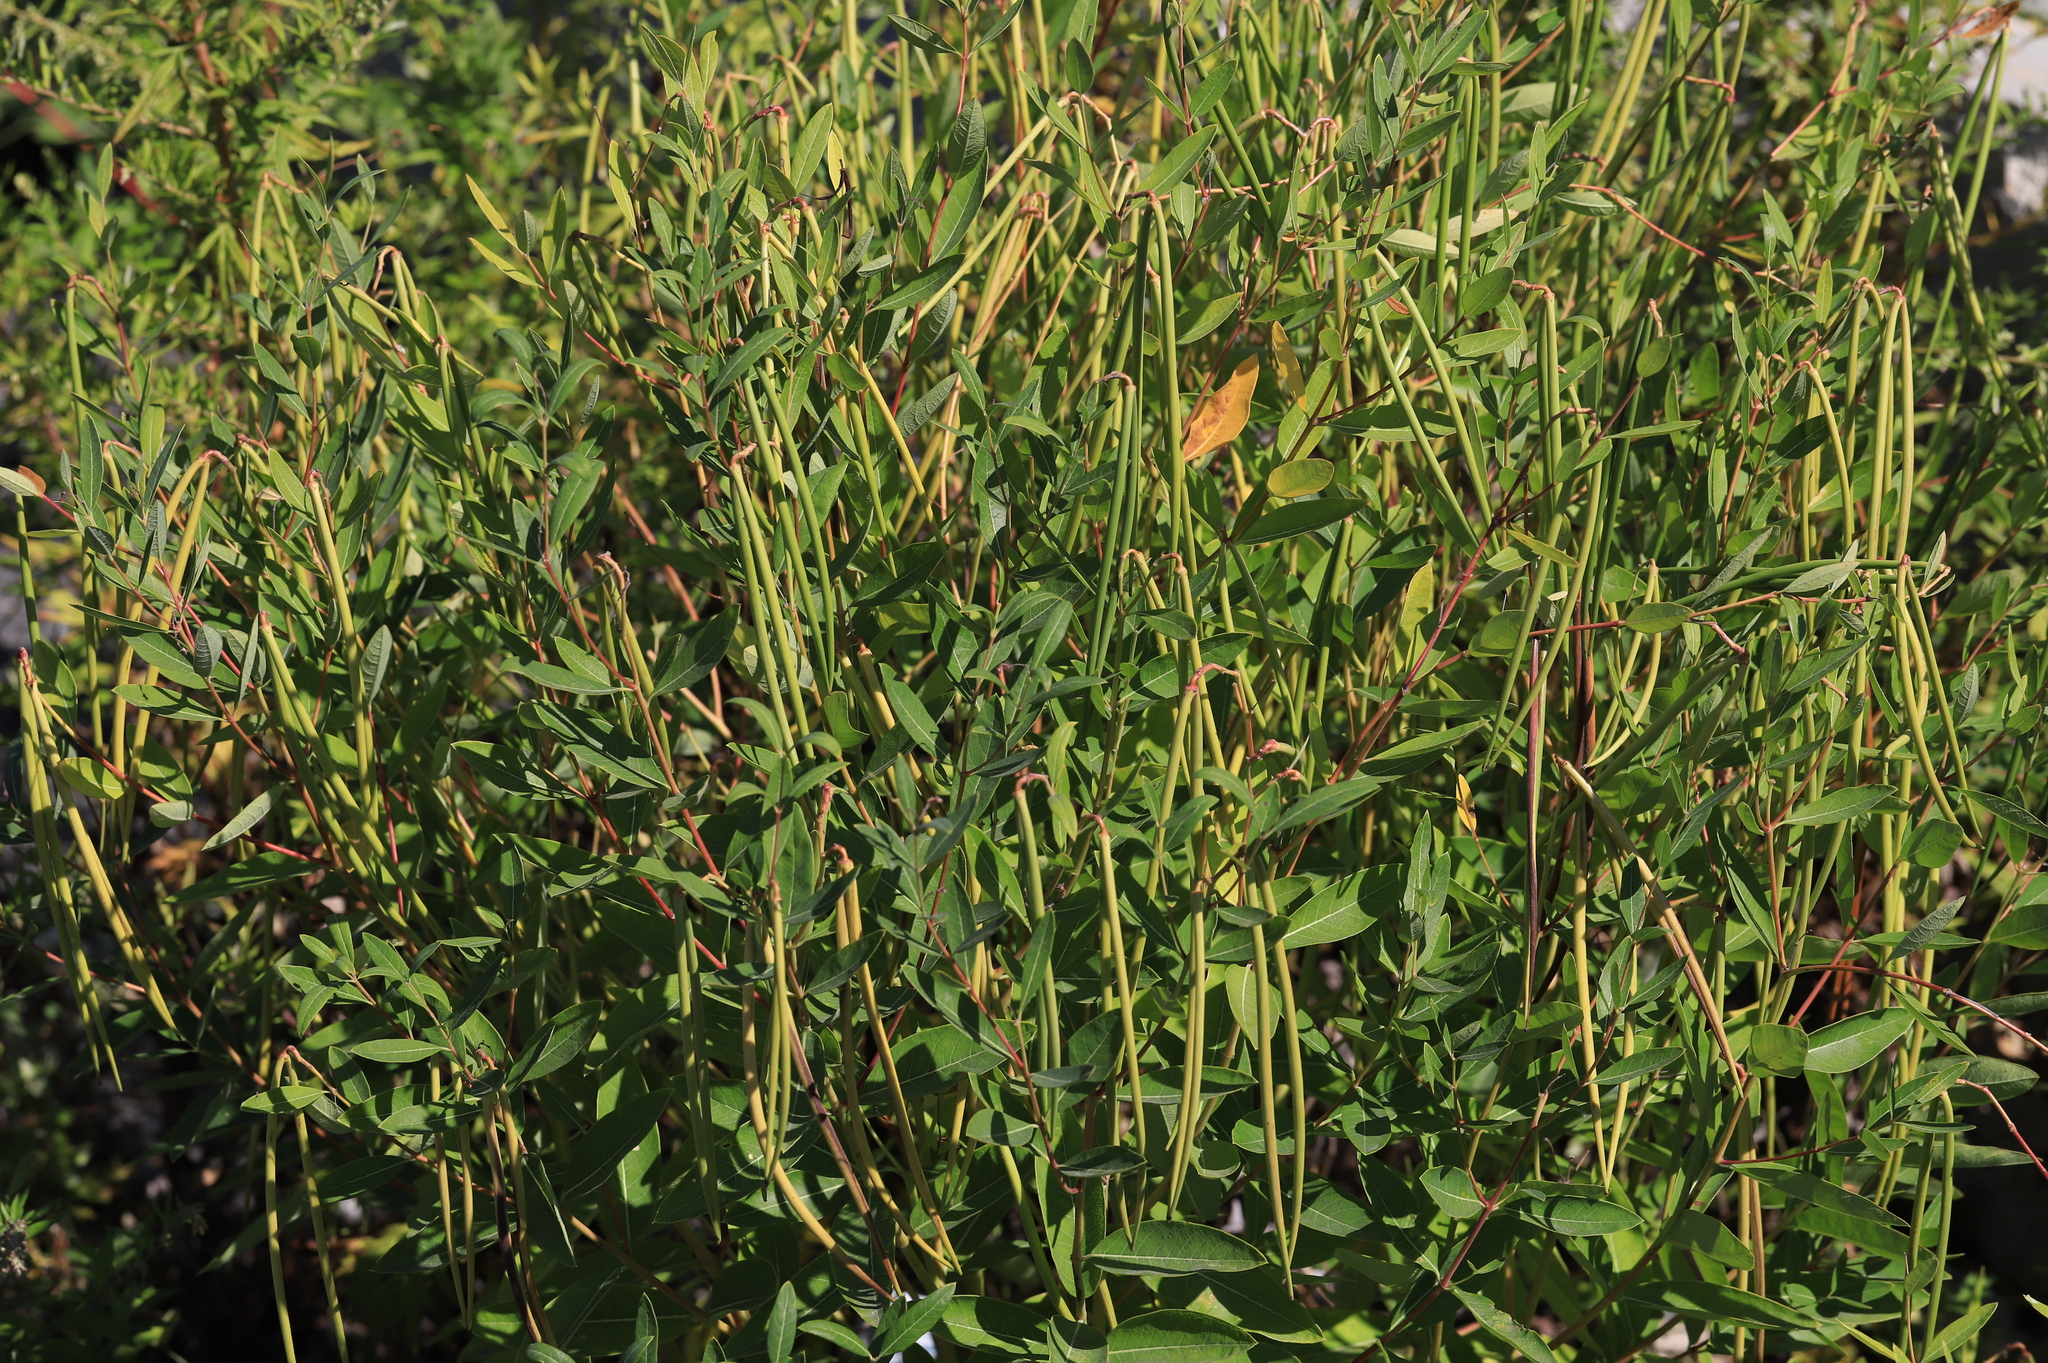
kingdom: Plantae
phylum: Tracheophyta
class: Magnoliopsida
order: Gentianales
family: Apocynaceae
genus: Apocynum
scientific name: Apocynum cannabinum
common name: Hemp dogbane
